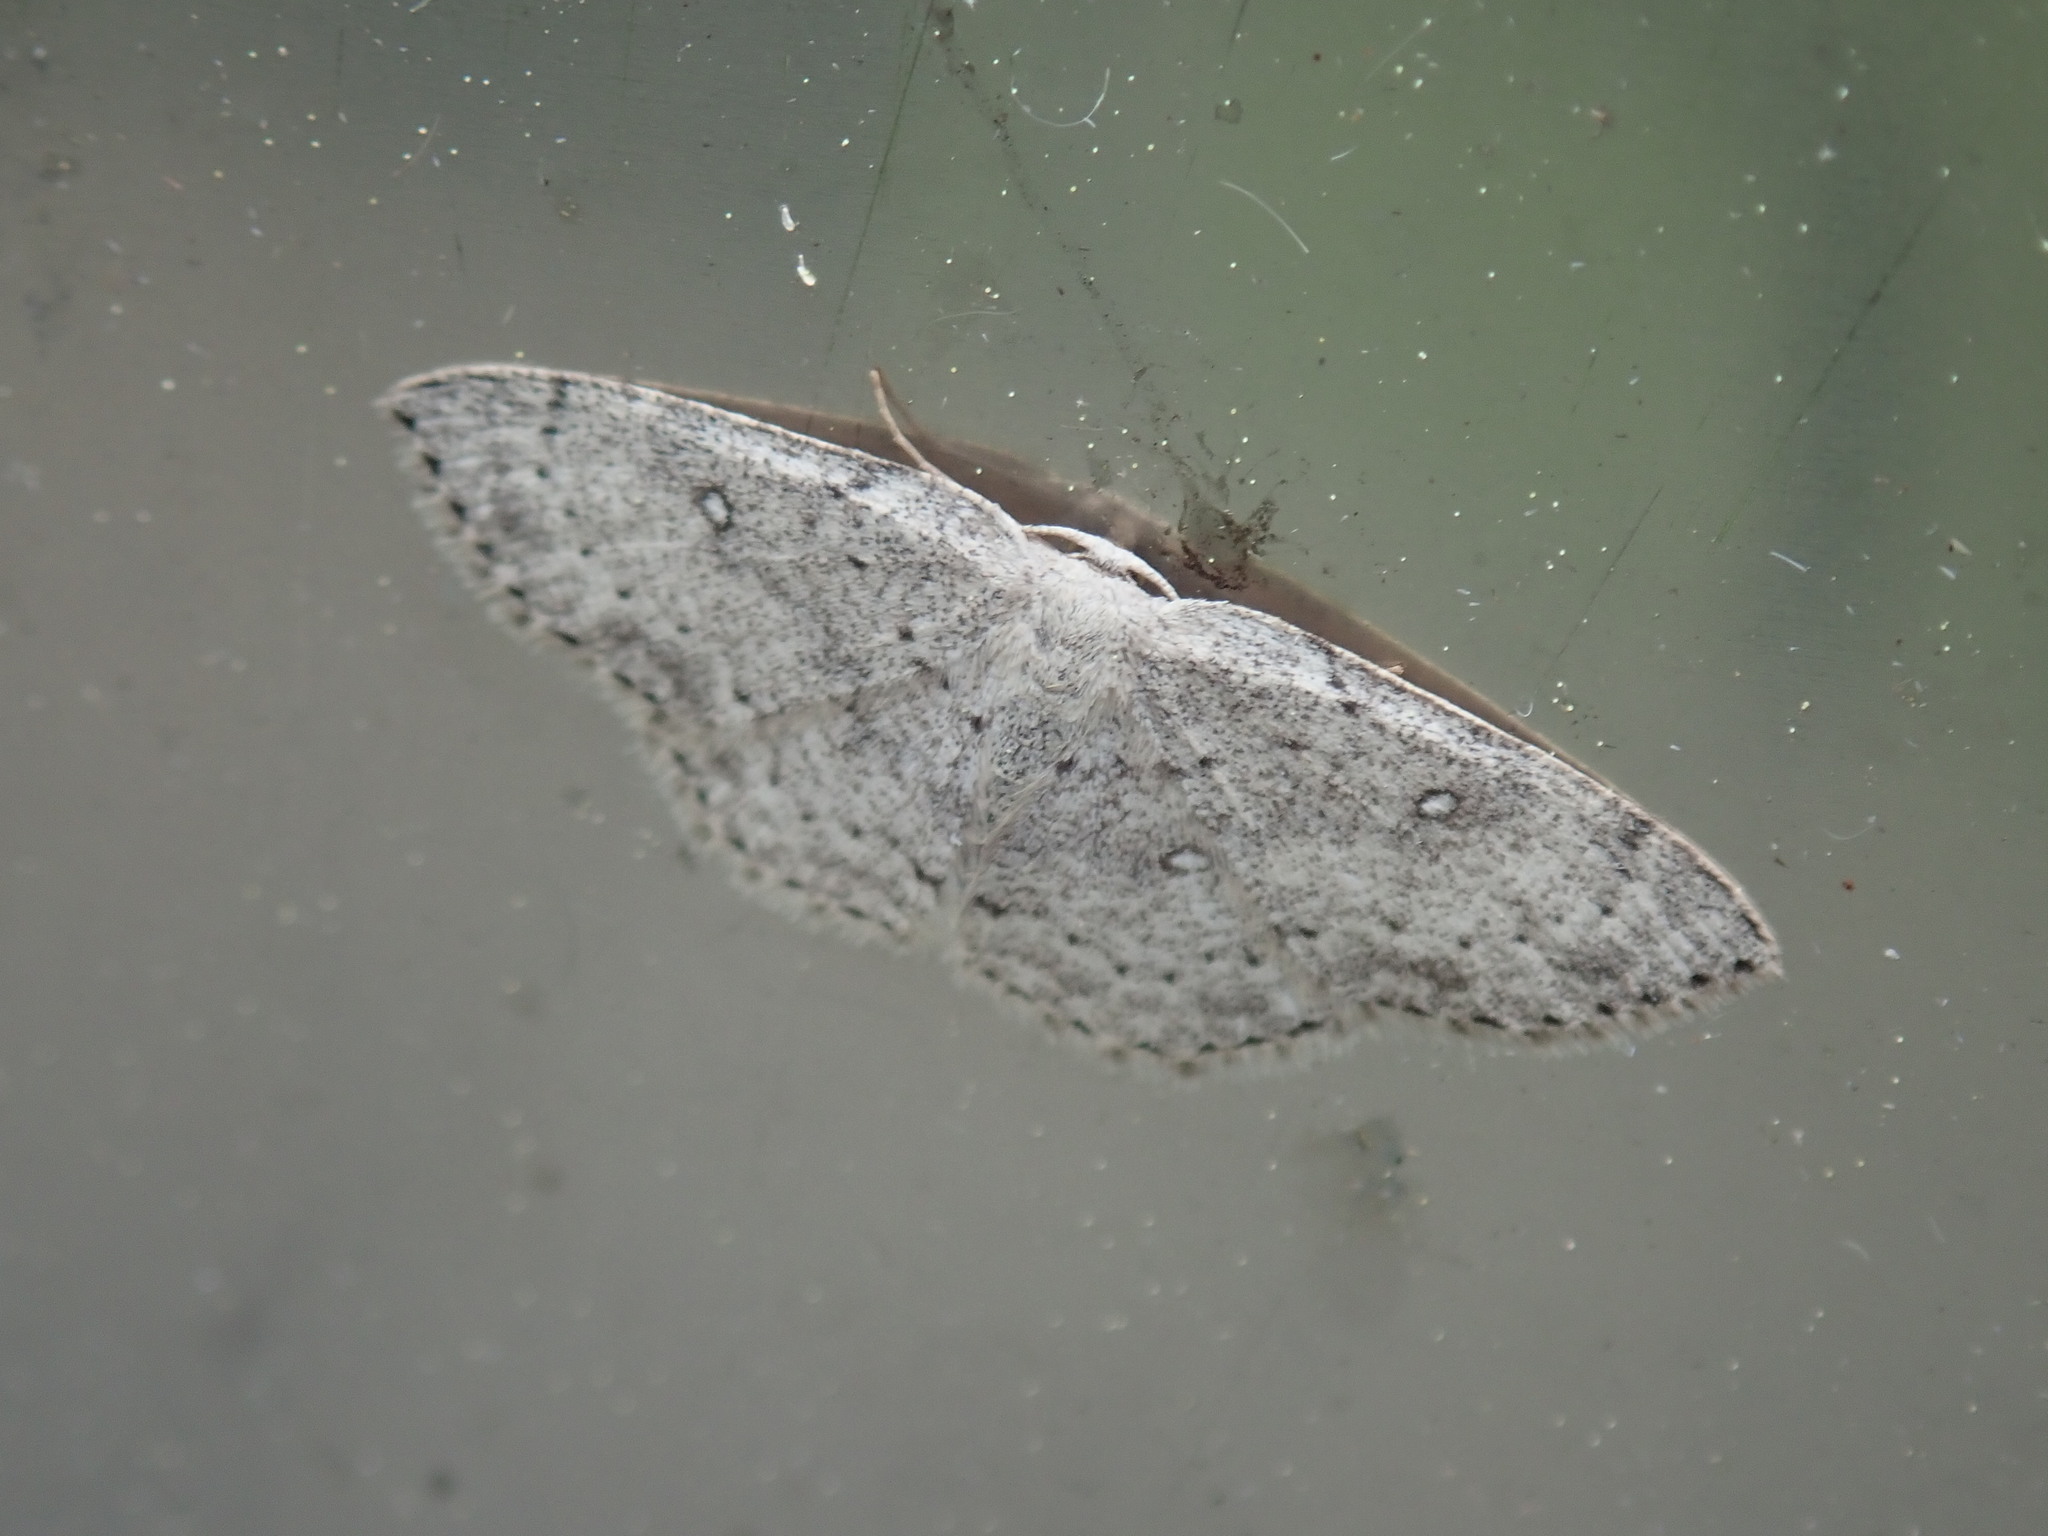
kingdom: Animalia
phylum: Arthropoda
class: Insecta
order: Lepidoptera
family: Geometridae
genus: Cyclophora
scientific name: Cyclophora pendulinaria
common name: Sweet fern geometer
